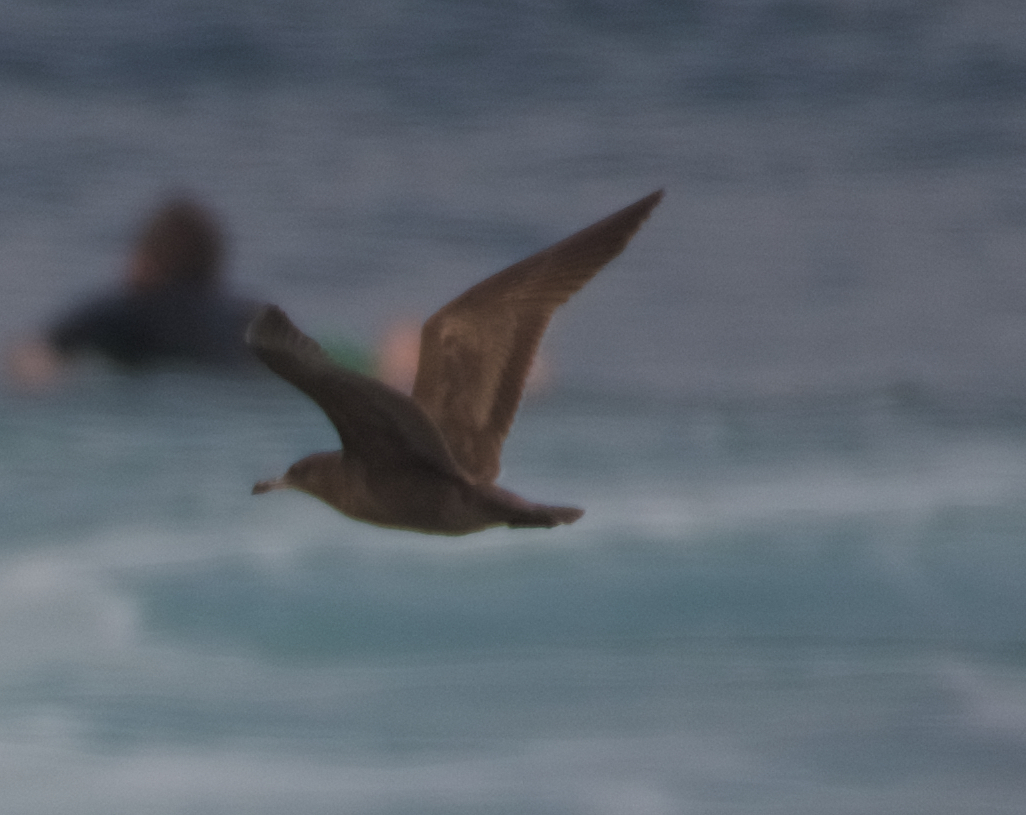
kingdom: Animalia
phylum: Chordata
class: Aves
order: Charadriiformes
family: Laridae
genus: Larus
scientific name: Larus heermanni
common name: Heermann's gull
